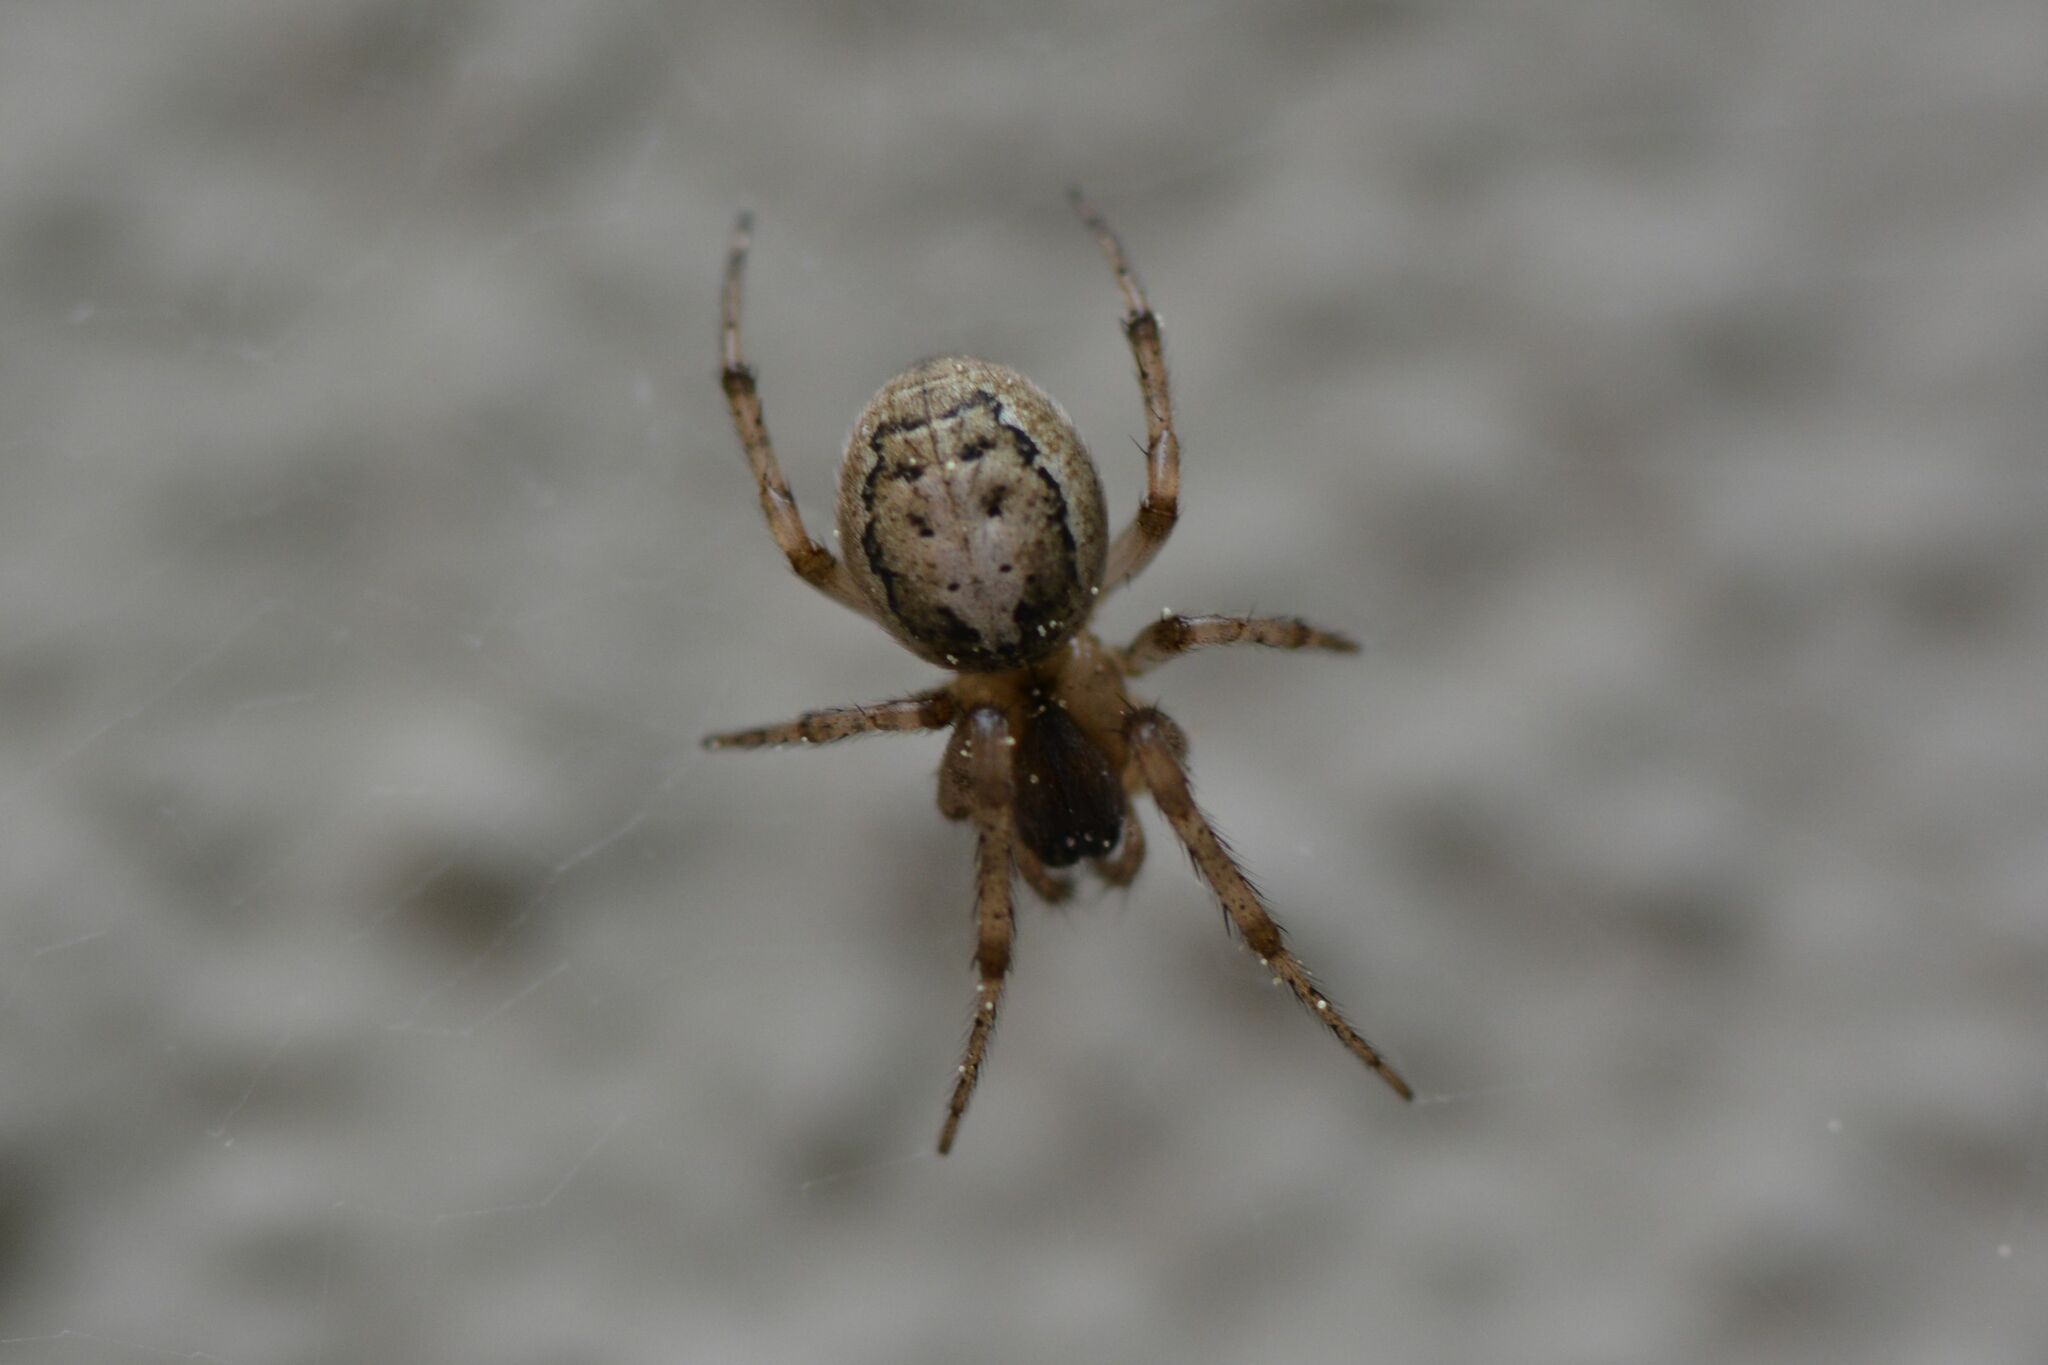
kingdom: Animalia
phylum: Arthropoda
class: Arachnida
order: Araneae
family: Araneidae
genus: Zygiella
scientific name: Zygiella x-notata
